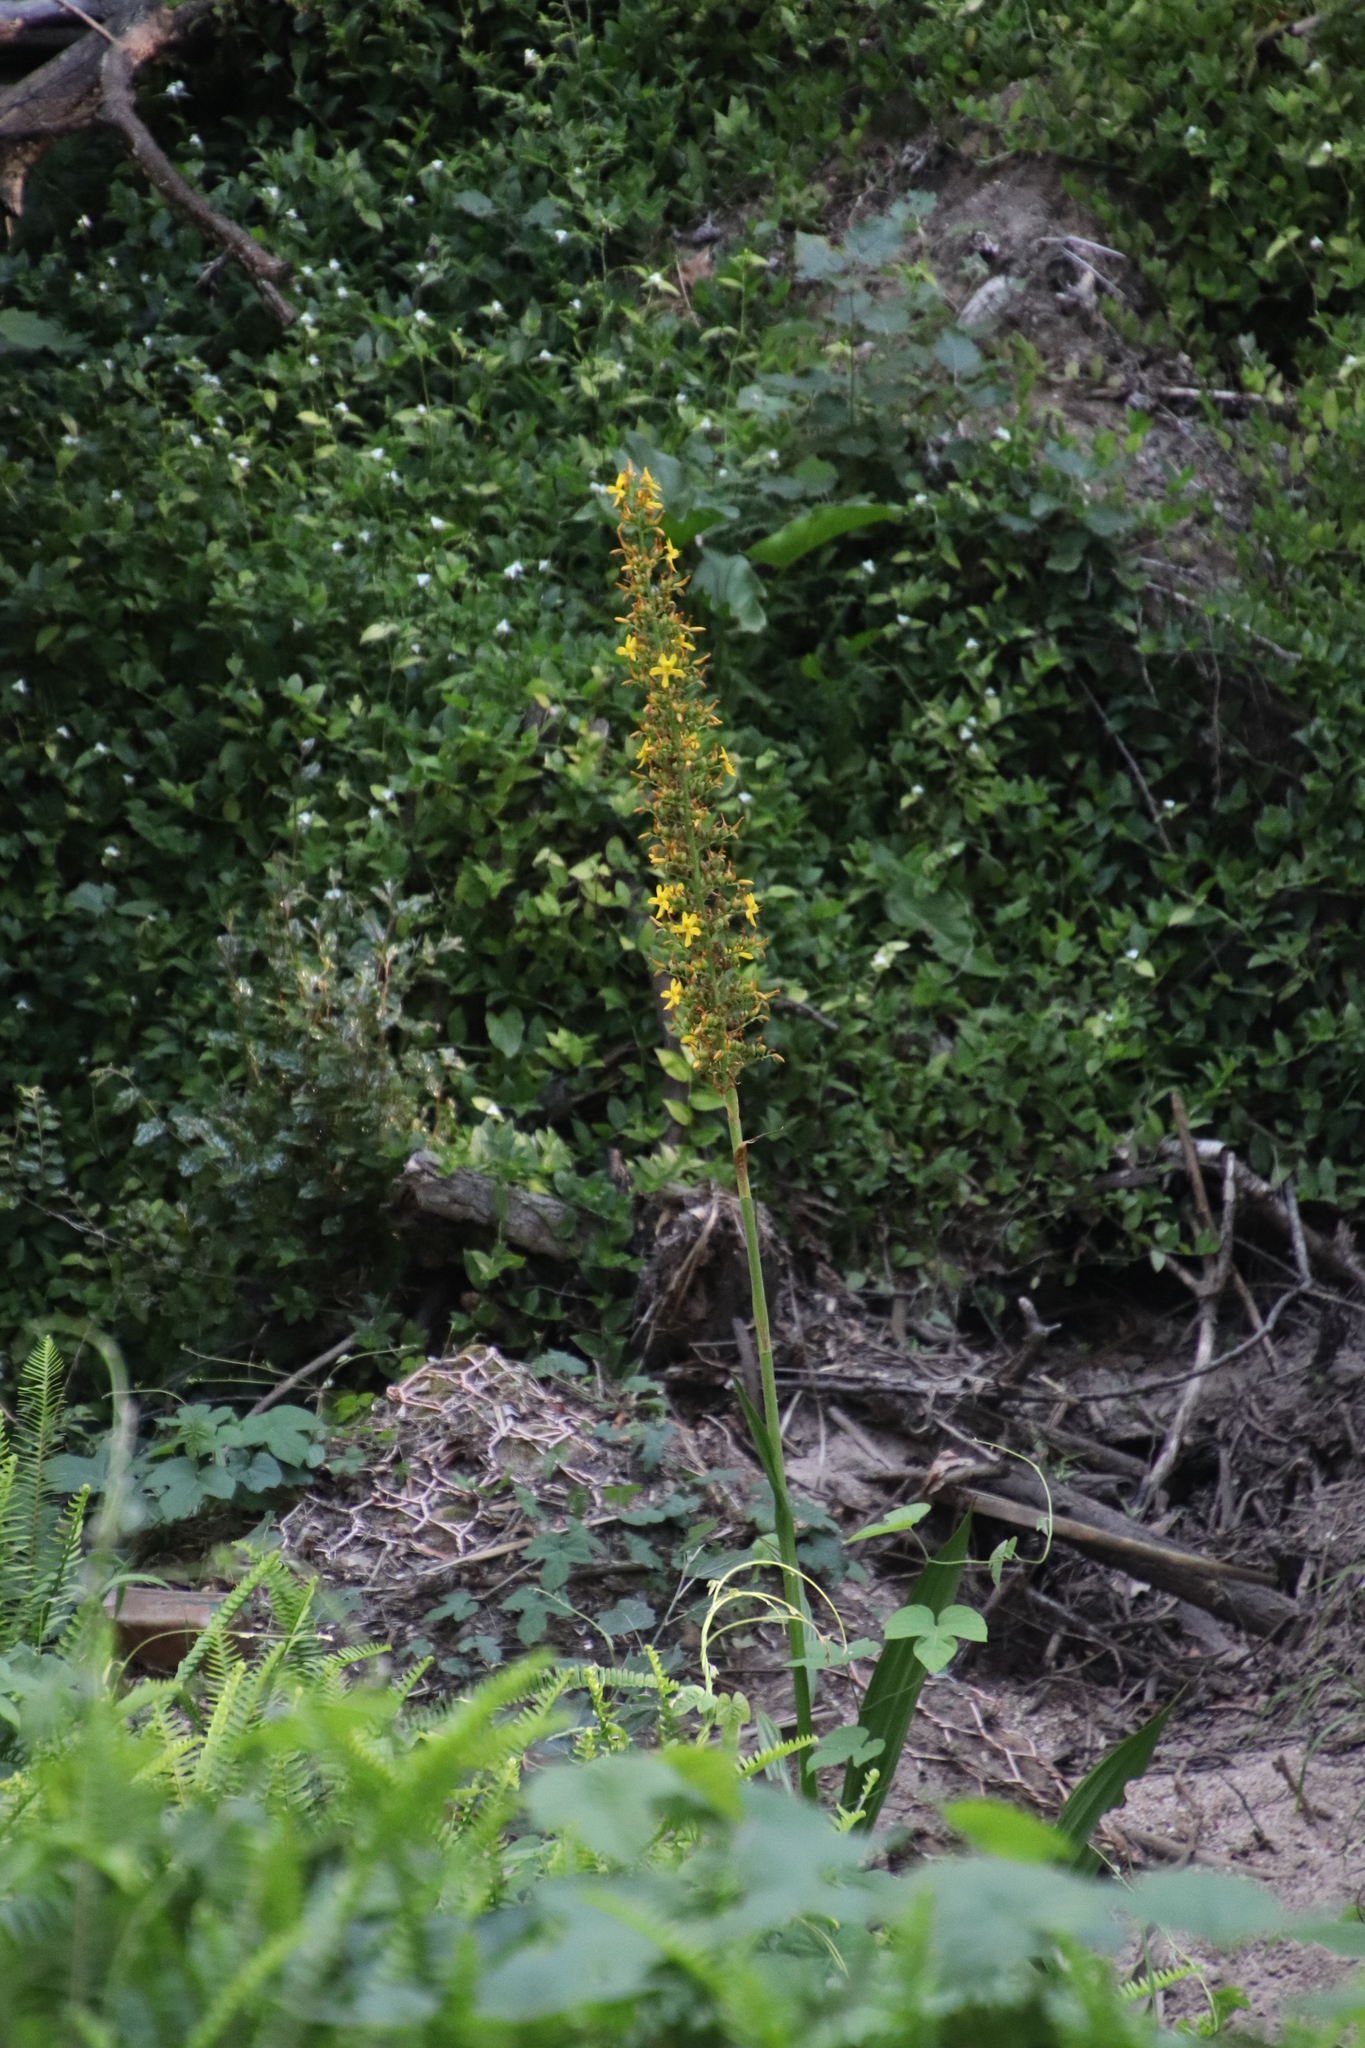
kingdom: Plantae
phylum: Tracheophyta
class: Liliopsida
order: Commelinales
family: Haemodoraceae
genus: Wachendorfia
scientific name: Wachendorfia thyrsiflora
